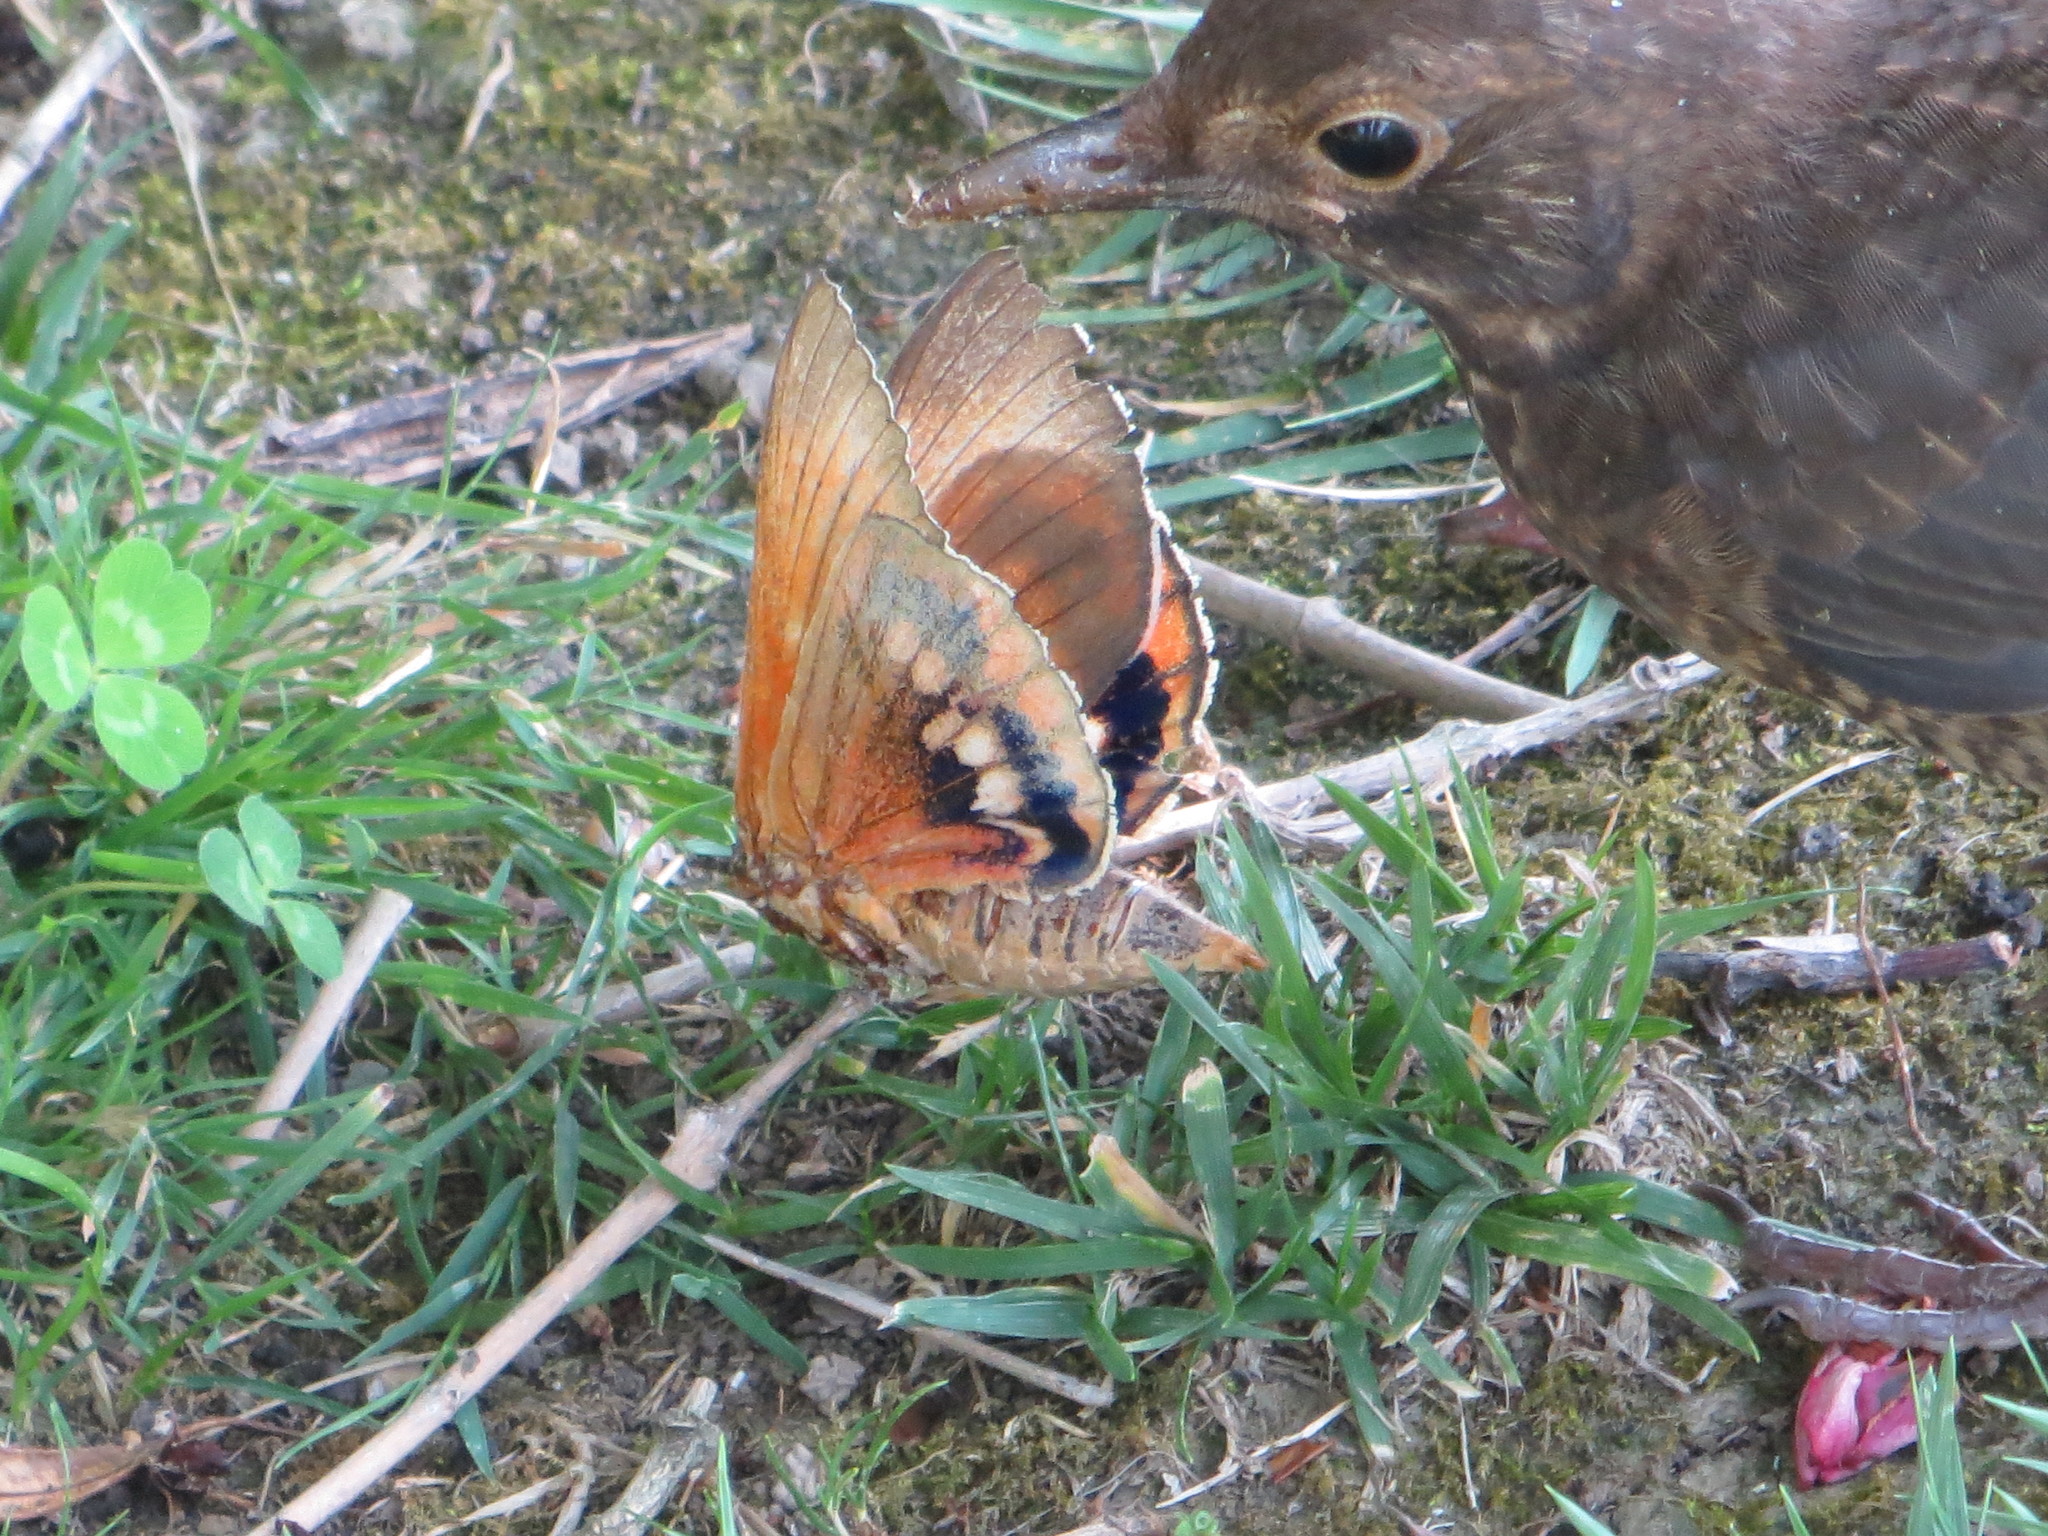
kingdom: Animalia
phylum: Arthropoda
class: Insecta
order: Lepidoptera
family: Castniidae
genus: Paysandisia
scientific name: Paysandisia archon
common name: Palm moth
